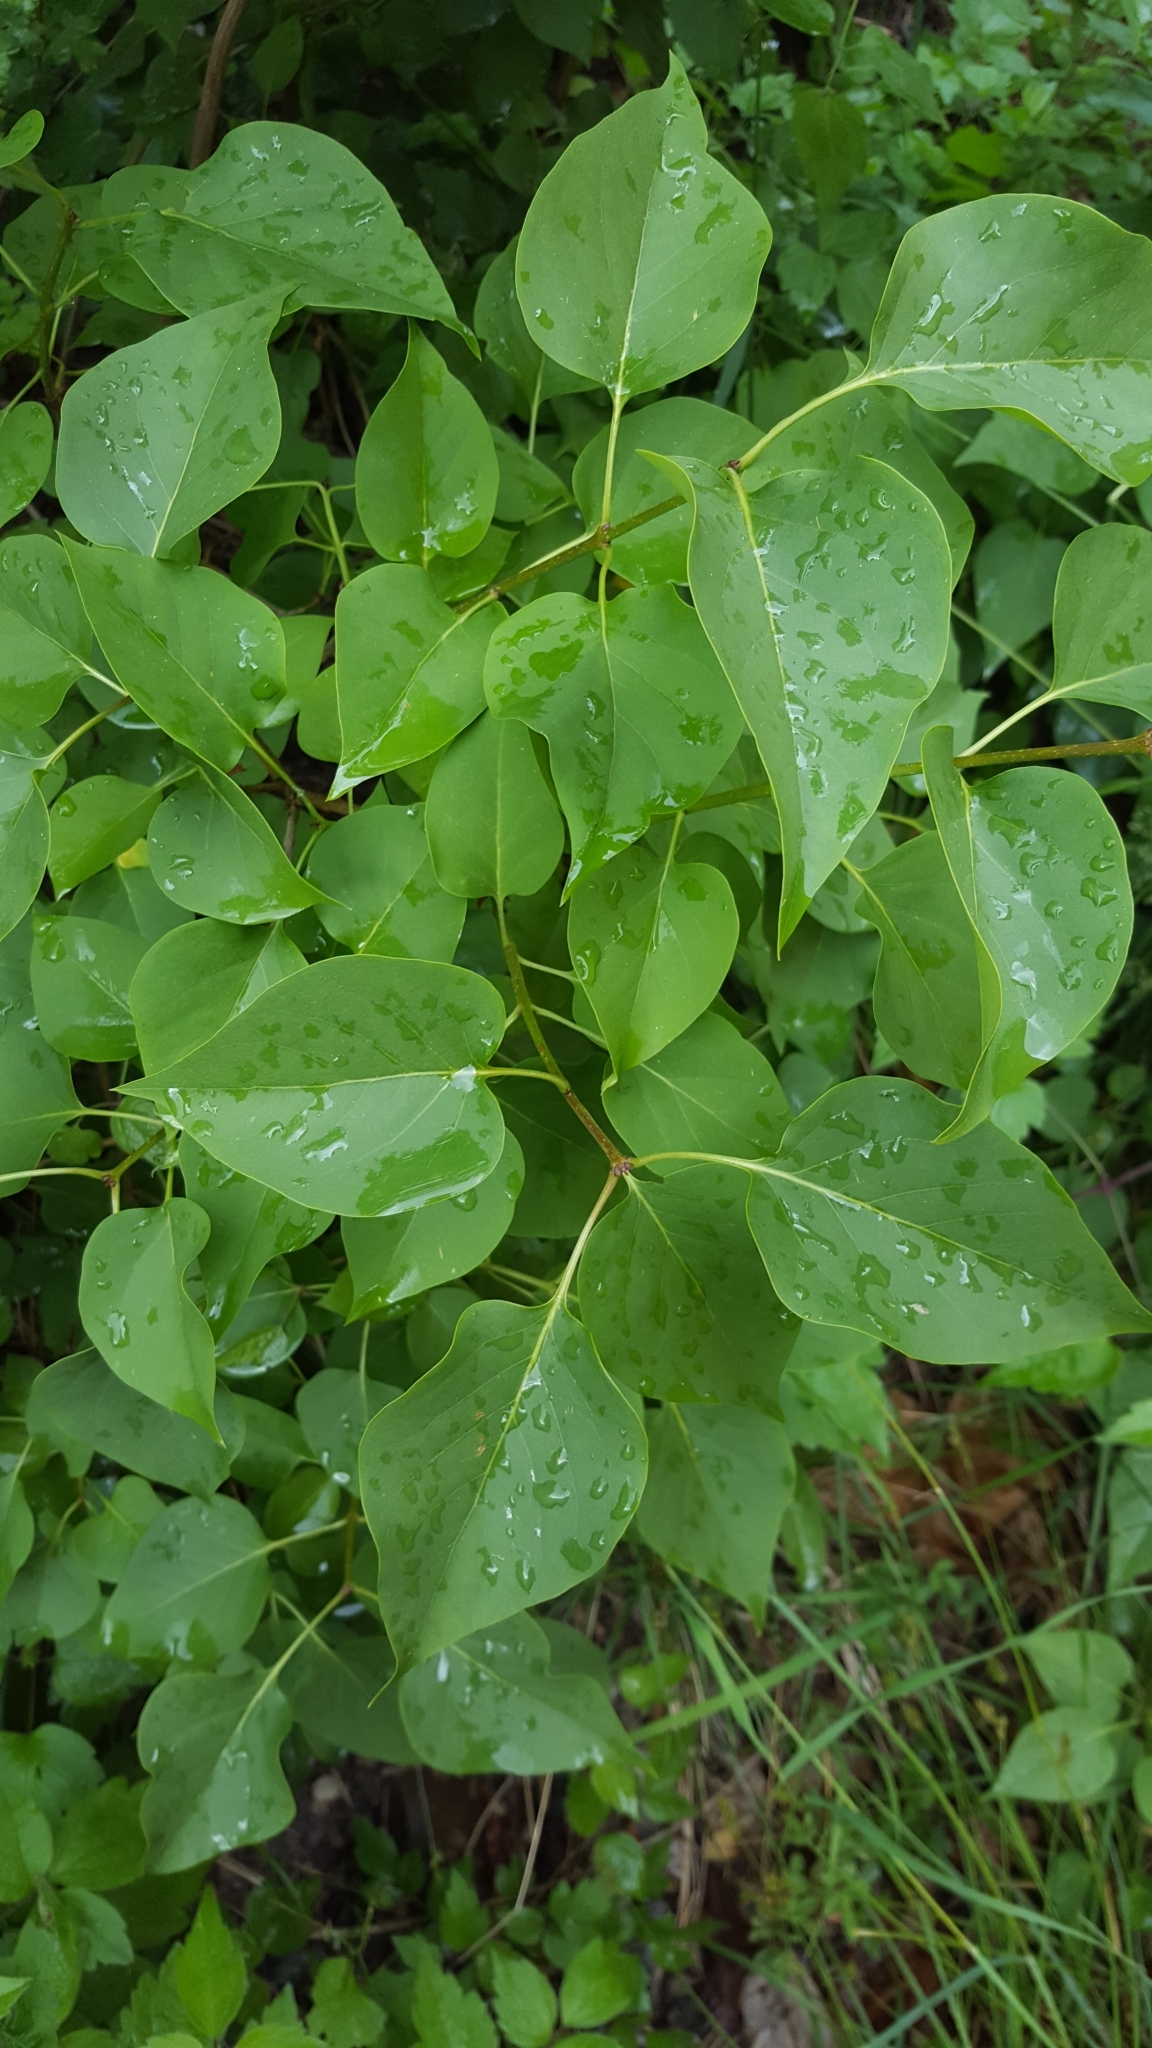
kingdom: Plantae
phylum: Tracheophyta
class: Magnoliopsida
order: Lamiales
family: Oleaceae
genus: Syringa
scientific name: Syringa vulgaris
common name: Common lilac
